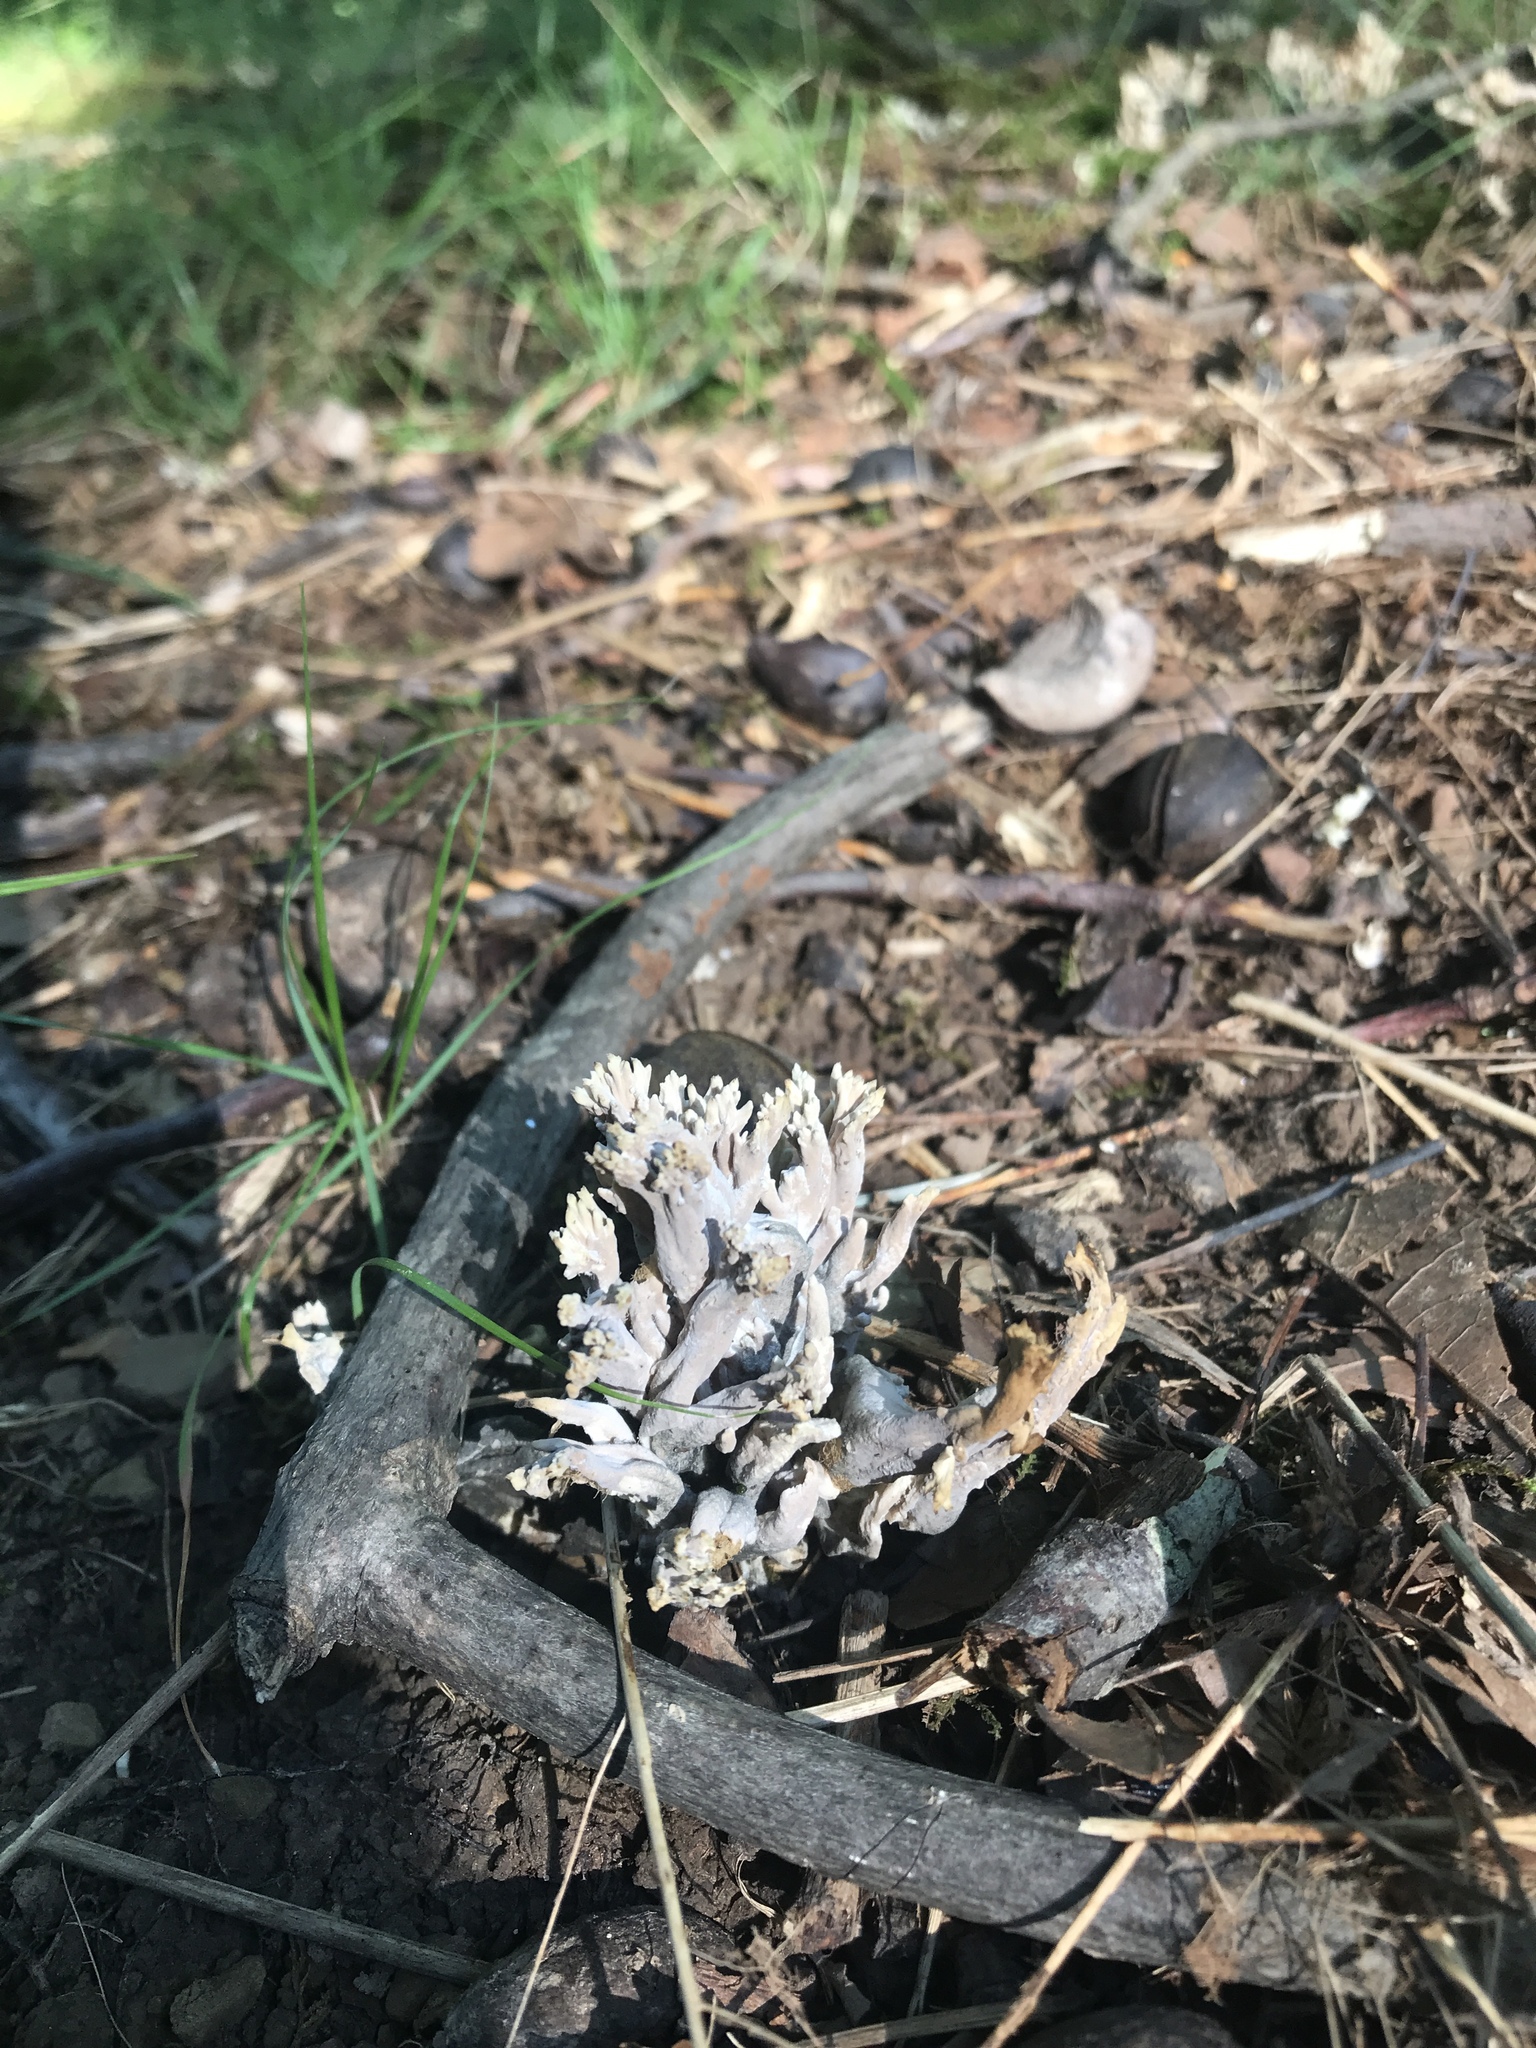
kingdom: Fungi
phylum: Basidiomycota
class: Agaricomycetes
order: Cantharellales
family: Hydnaceae
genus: Clavulina
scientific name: Clavulina cinerea
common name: Grey coral
